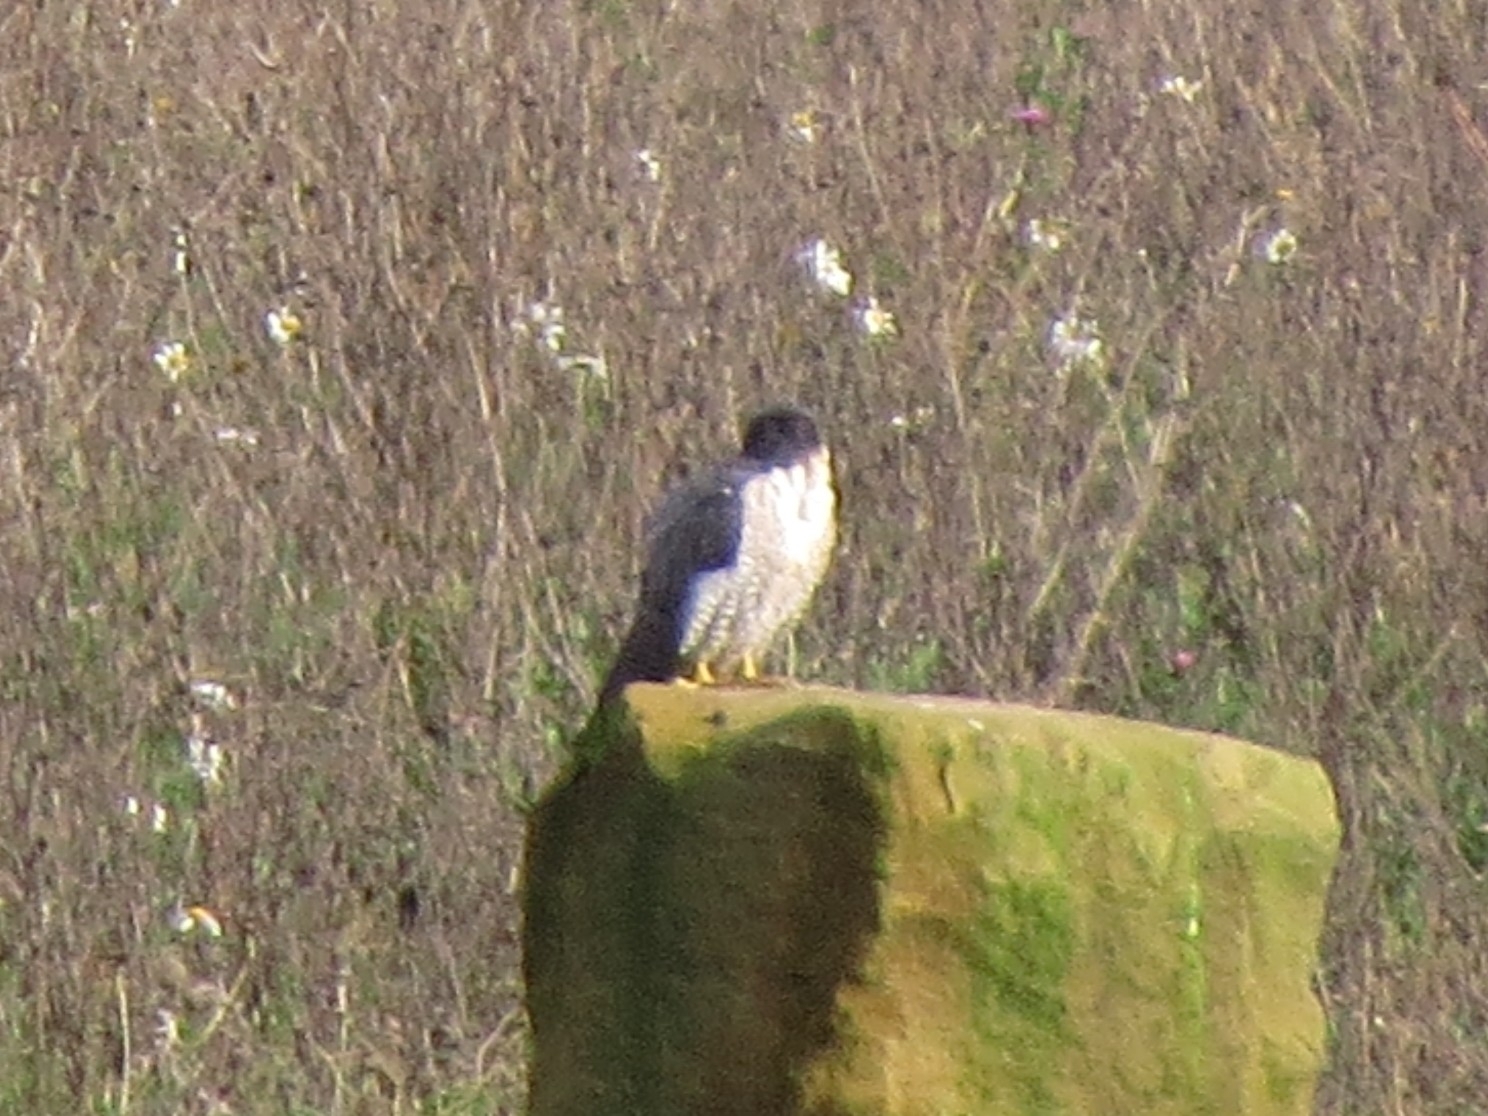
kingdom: Animalia
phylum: Chordata
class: Aves
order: Falconiformes
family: Falconidae
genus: Falco
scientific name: Falco peregrinus
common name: Peregrine falcon
